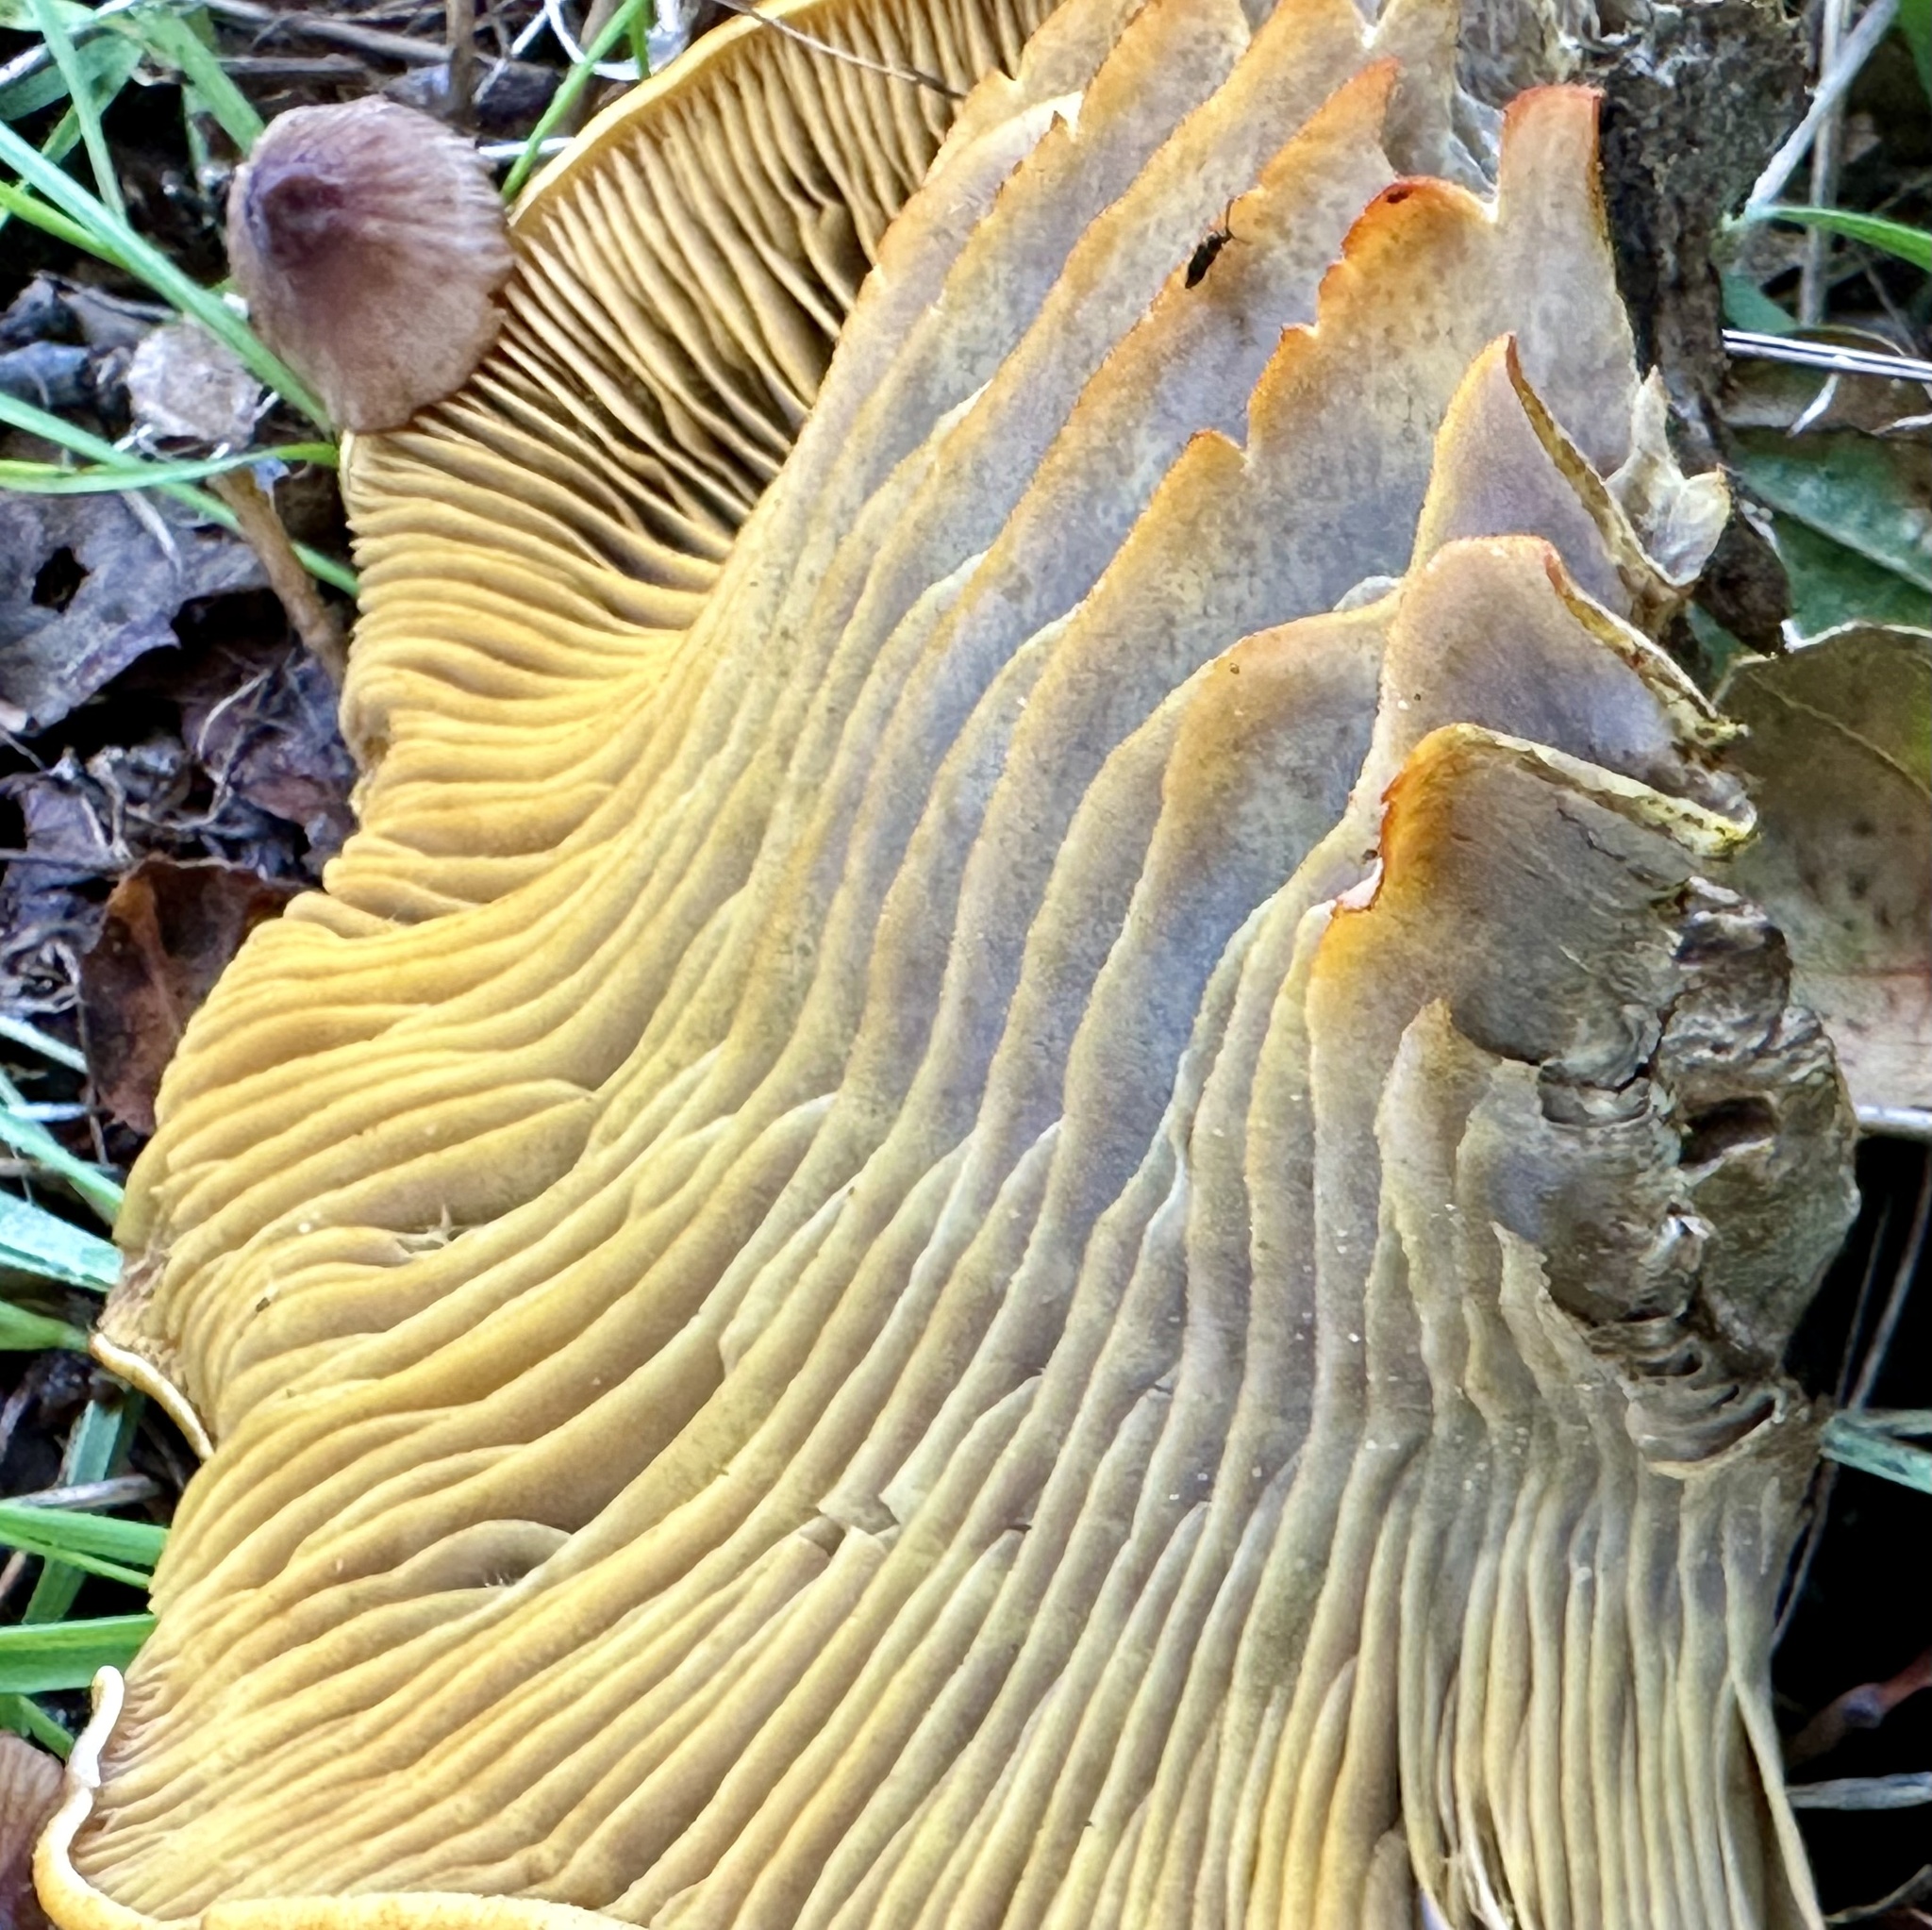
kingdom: Fungi
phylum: Basidiomycota
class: Agaricomycetes
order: Agaricales
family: Omphalotaceae
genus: Omphalotus
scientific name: Omphalotus olivascens
